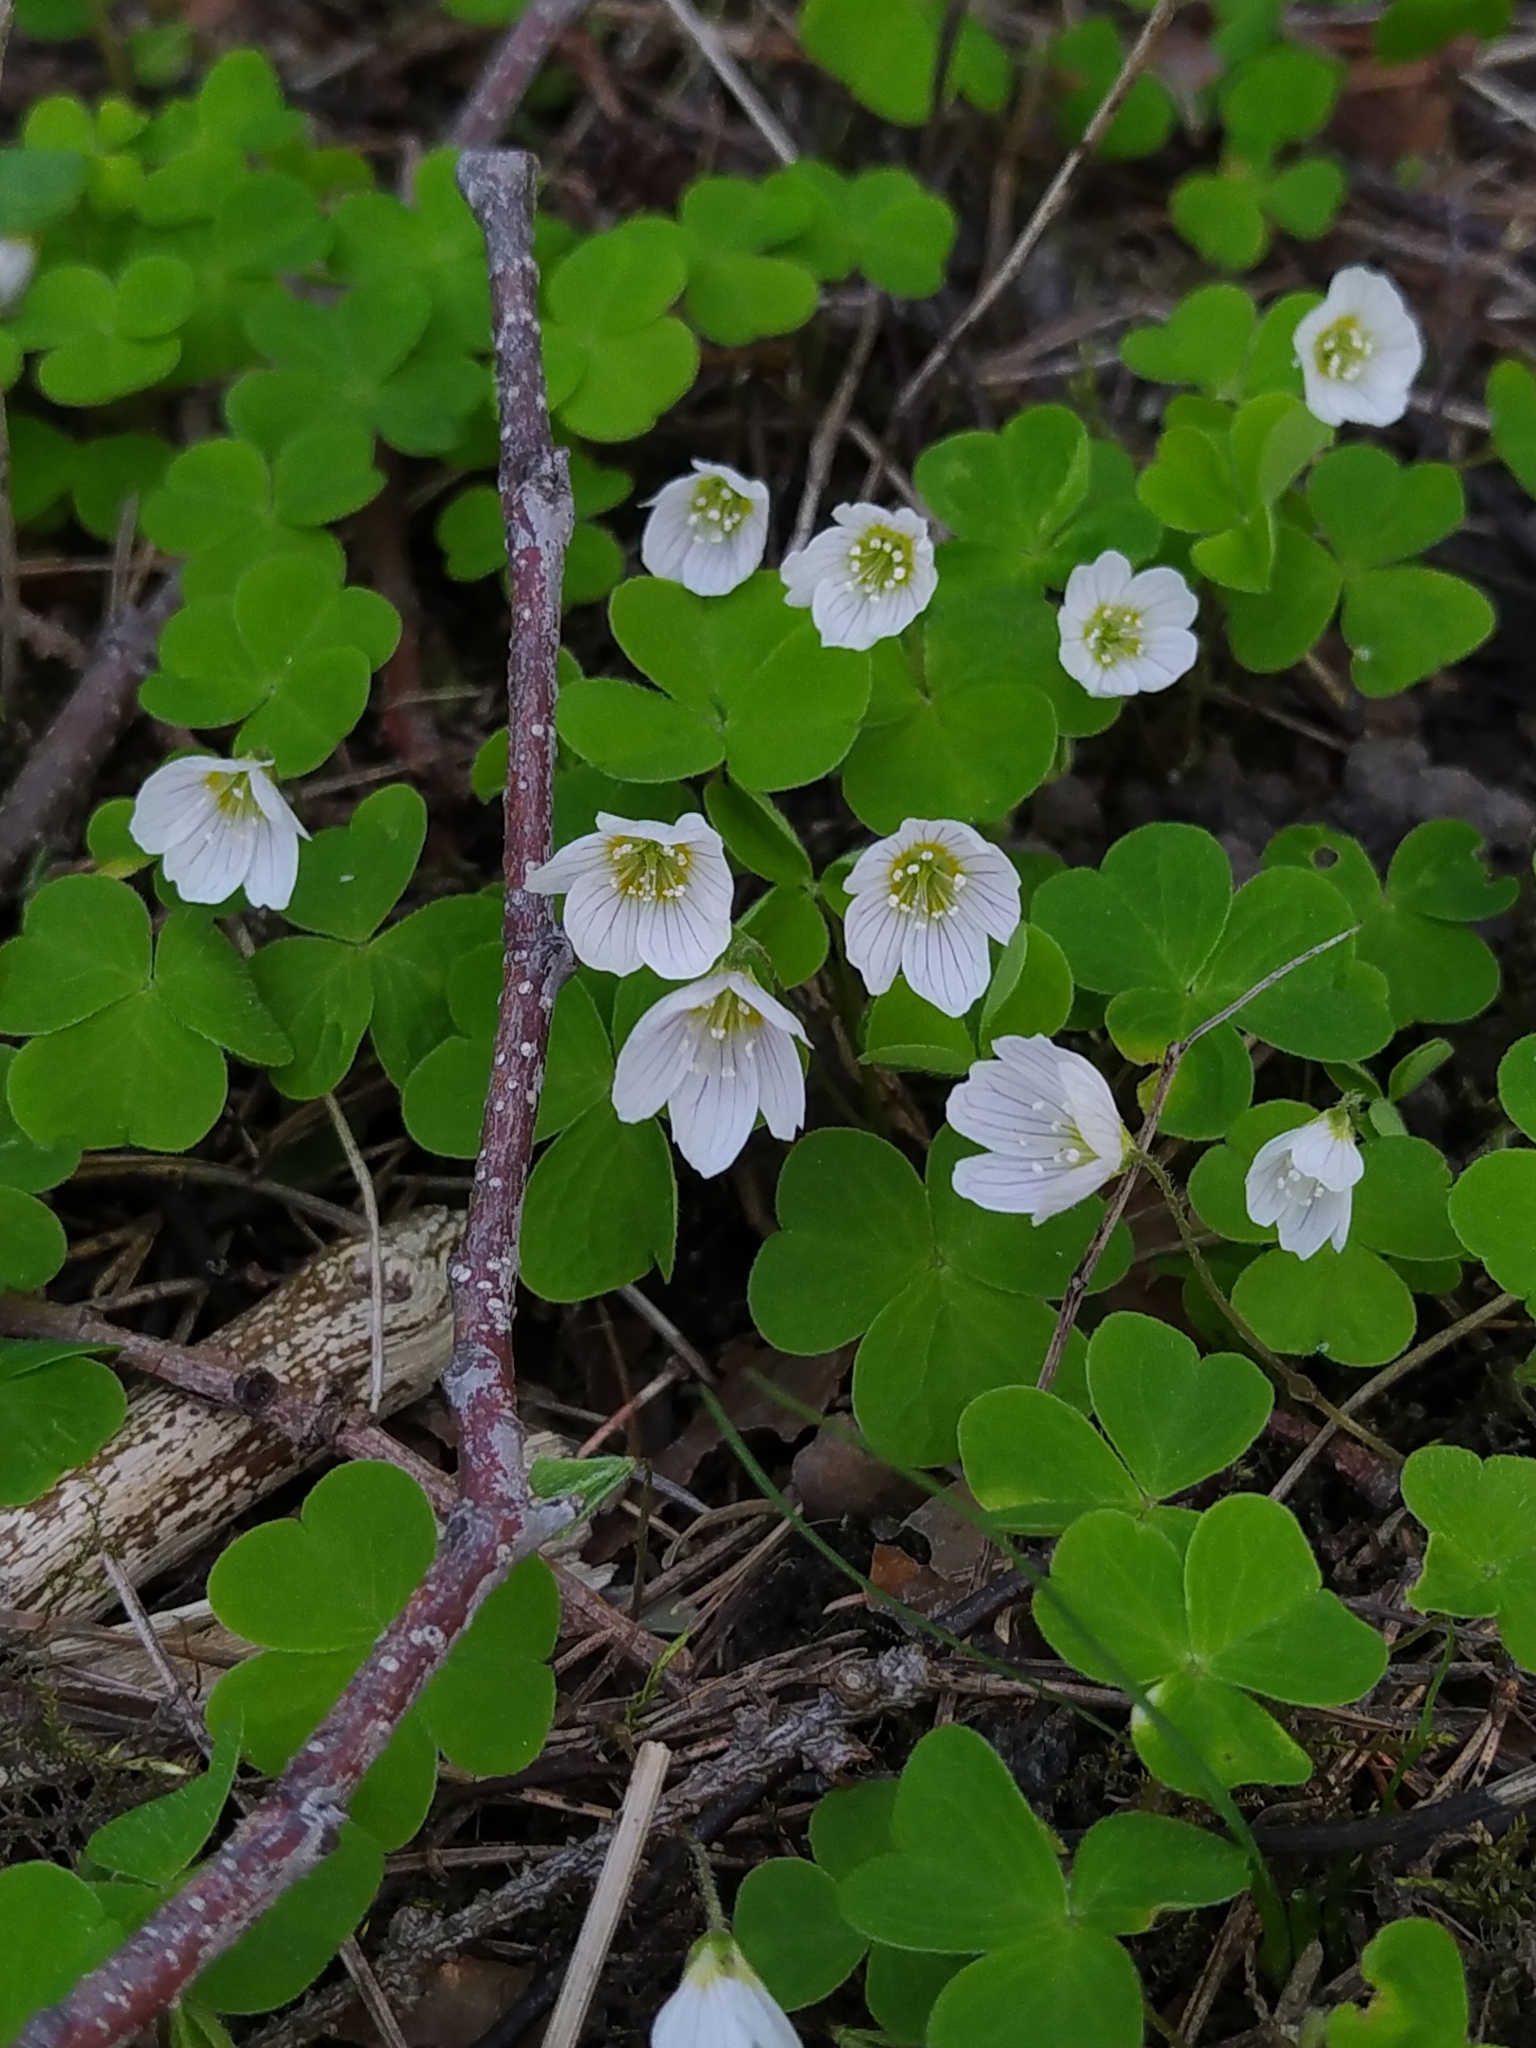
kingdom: Plantae
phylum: Tracheophyta
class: Magnoliopsida
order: Oxalidales
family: Oxalidaceae
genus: Oxalis
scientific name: Oxalis acetosella
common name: Wood-sorrel
